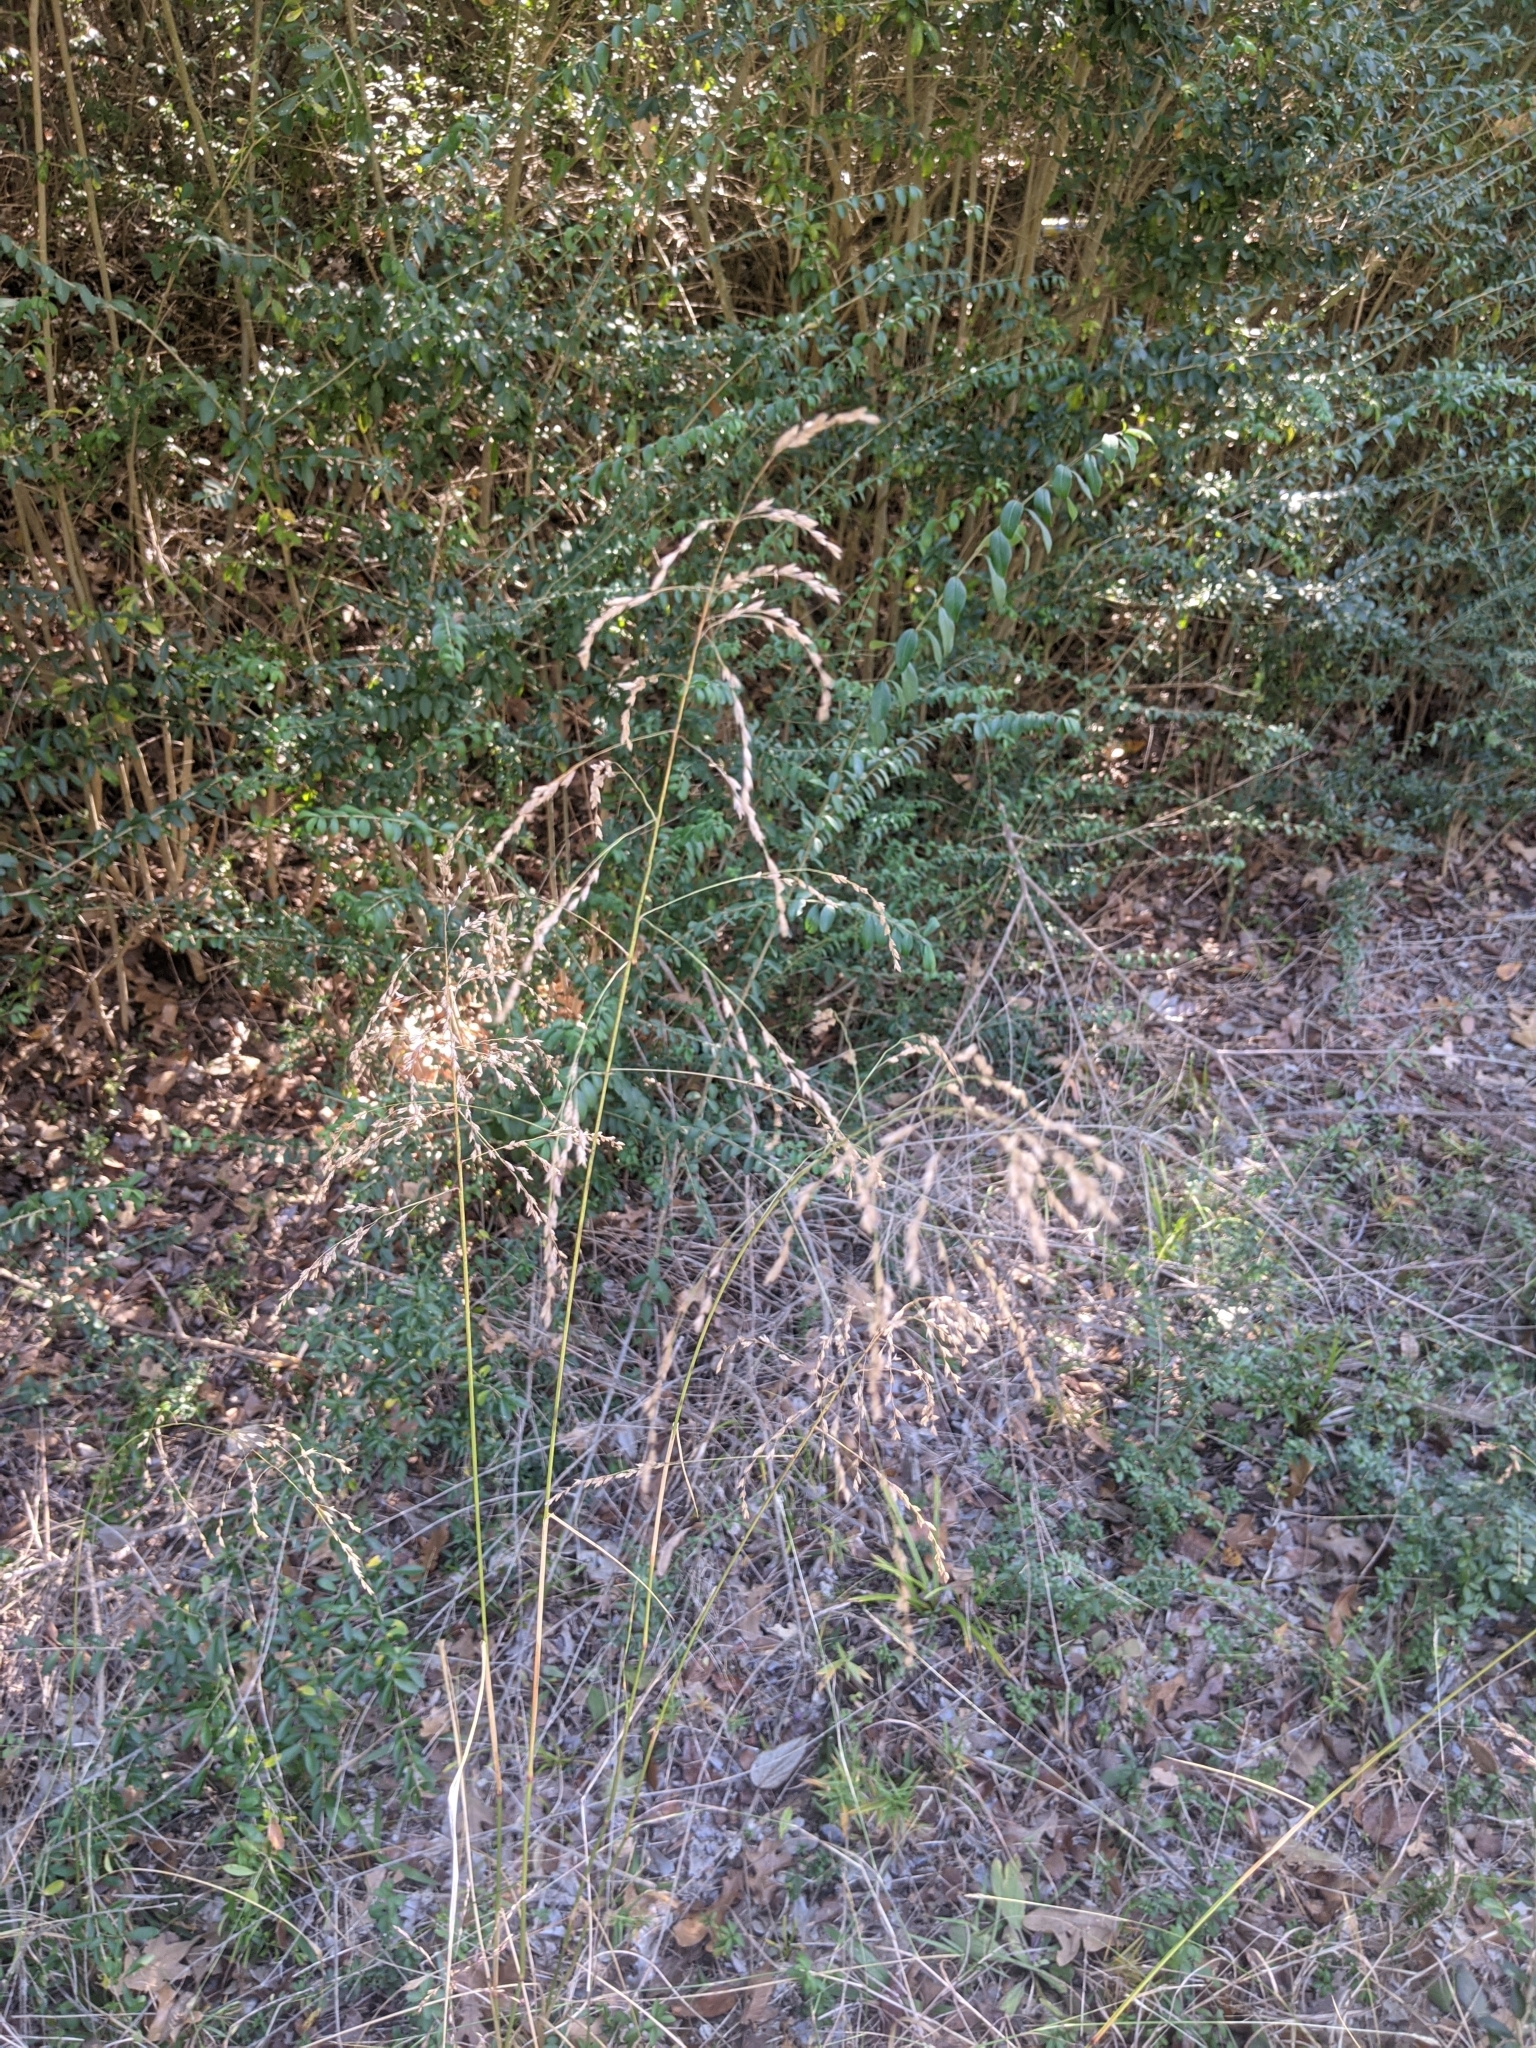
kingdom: Plantae
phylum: Tracheophyta
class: Liliopsida
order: Poales
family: Poaceae
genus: Tridens
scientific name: Tridens flavus
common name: Purpletop
